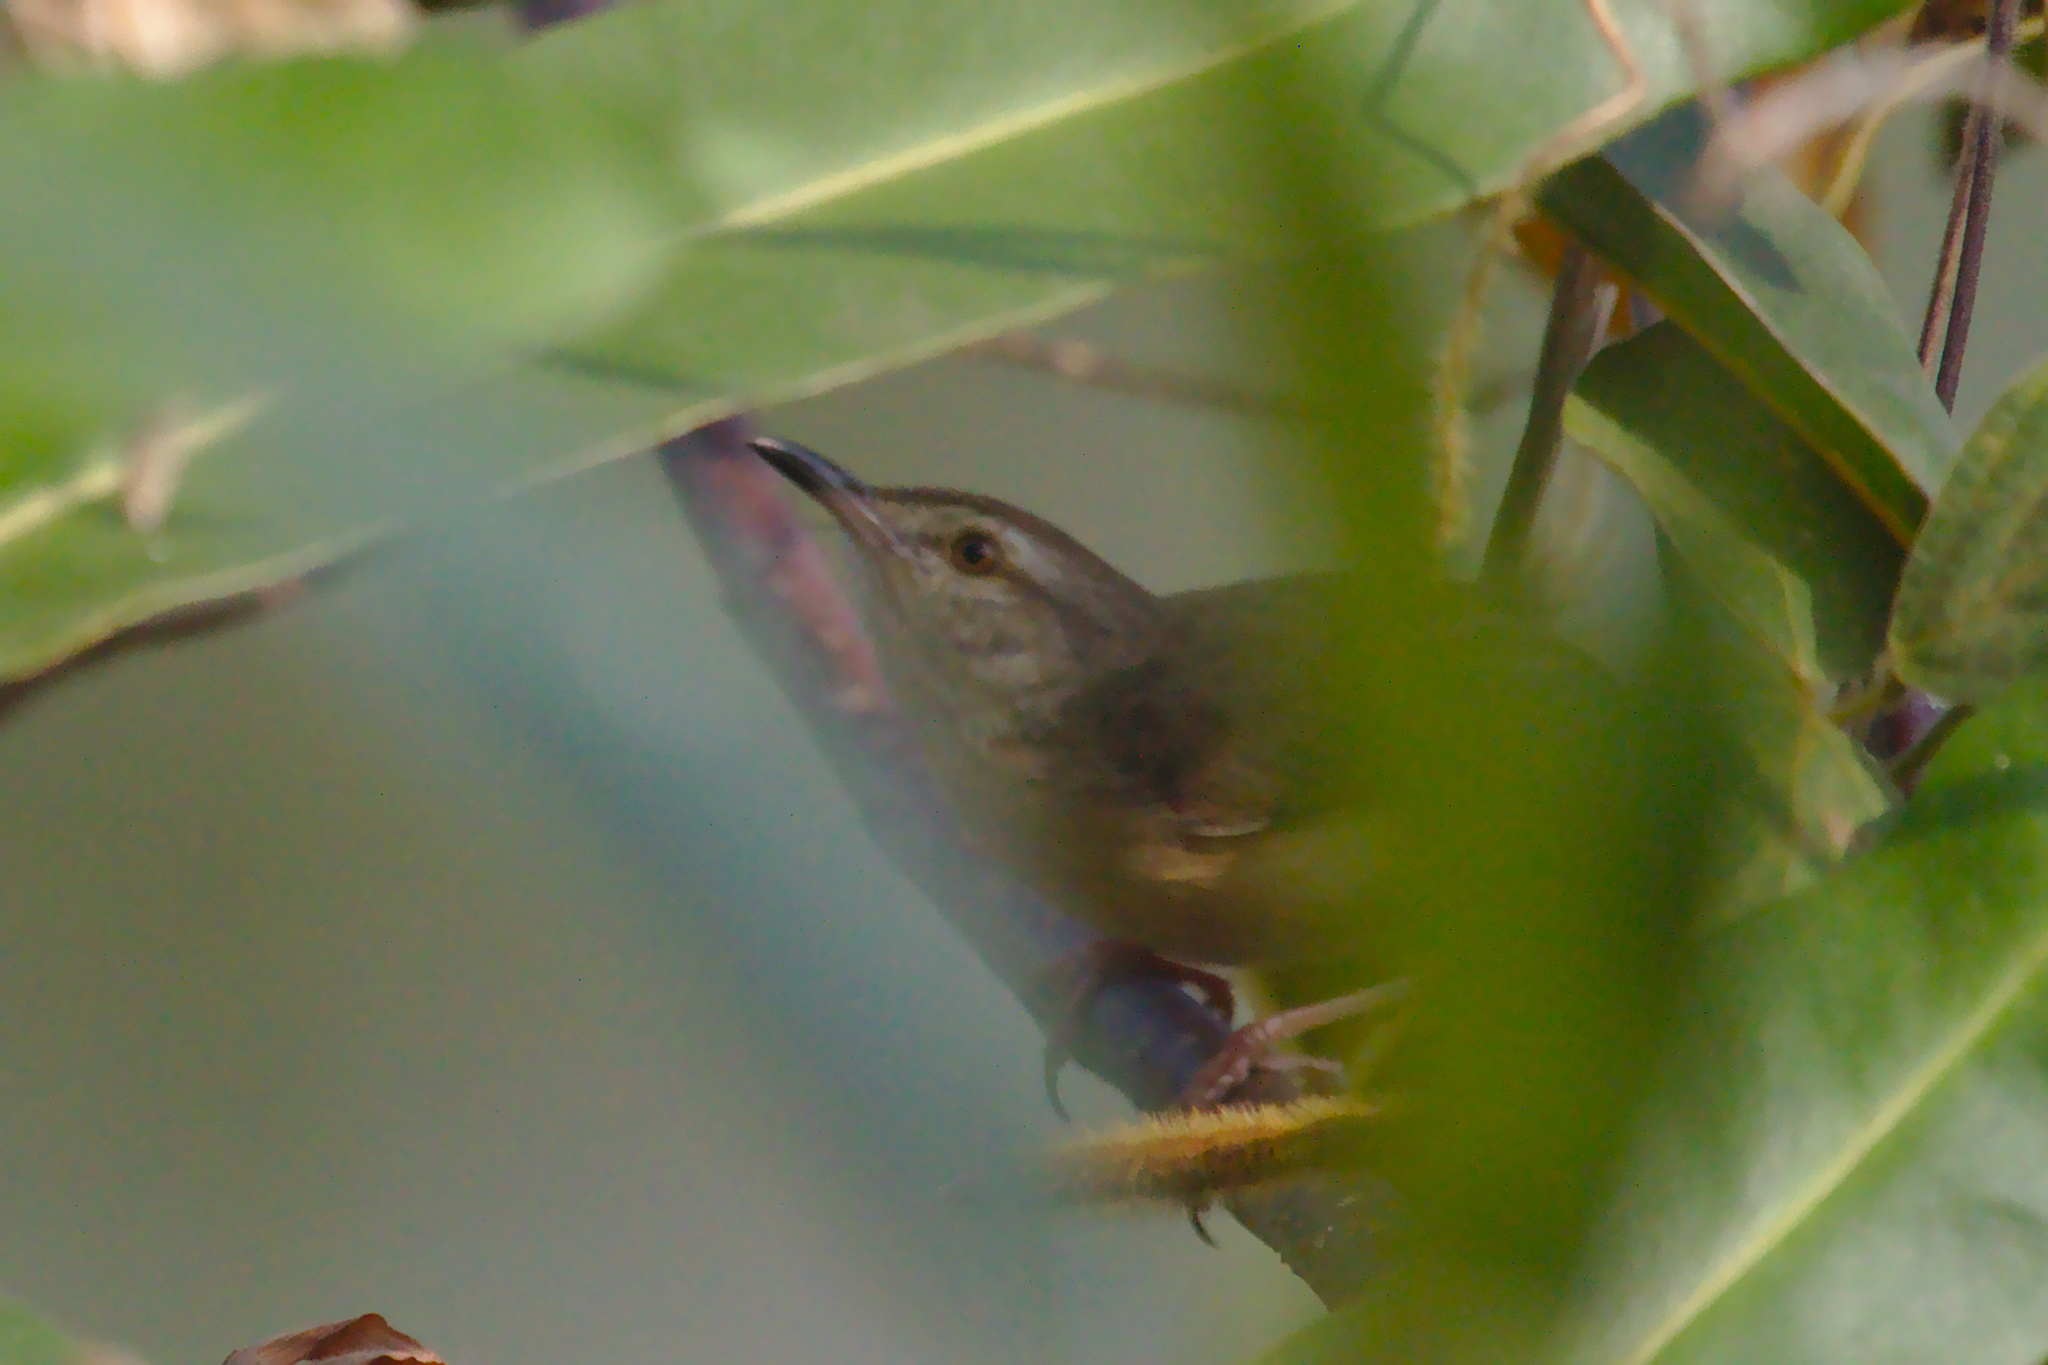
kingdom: Animalia
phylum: Chordata
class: Aves
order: Passeriformes
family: Cisticolidae
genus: Prinia
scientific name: Prinia inornata
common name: Plain prinia
